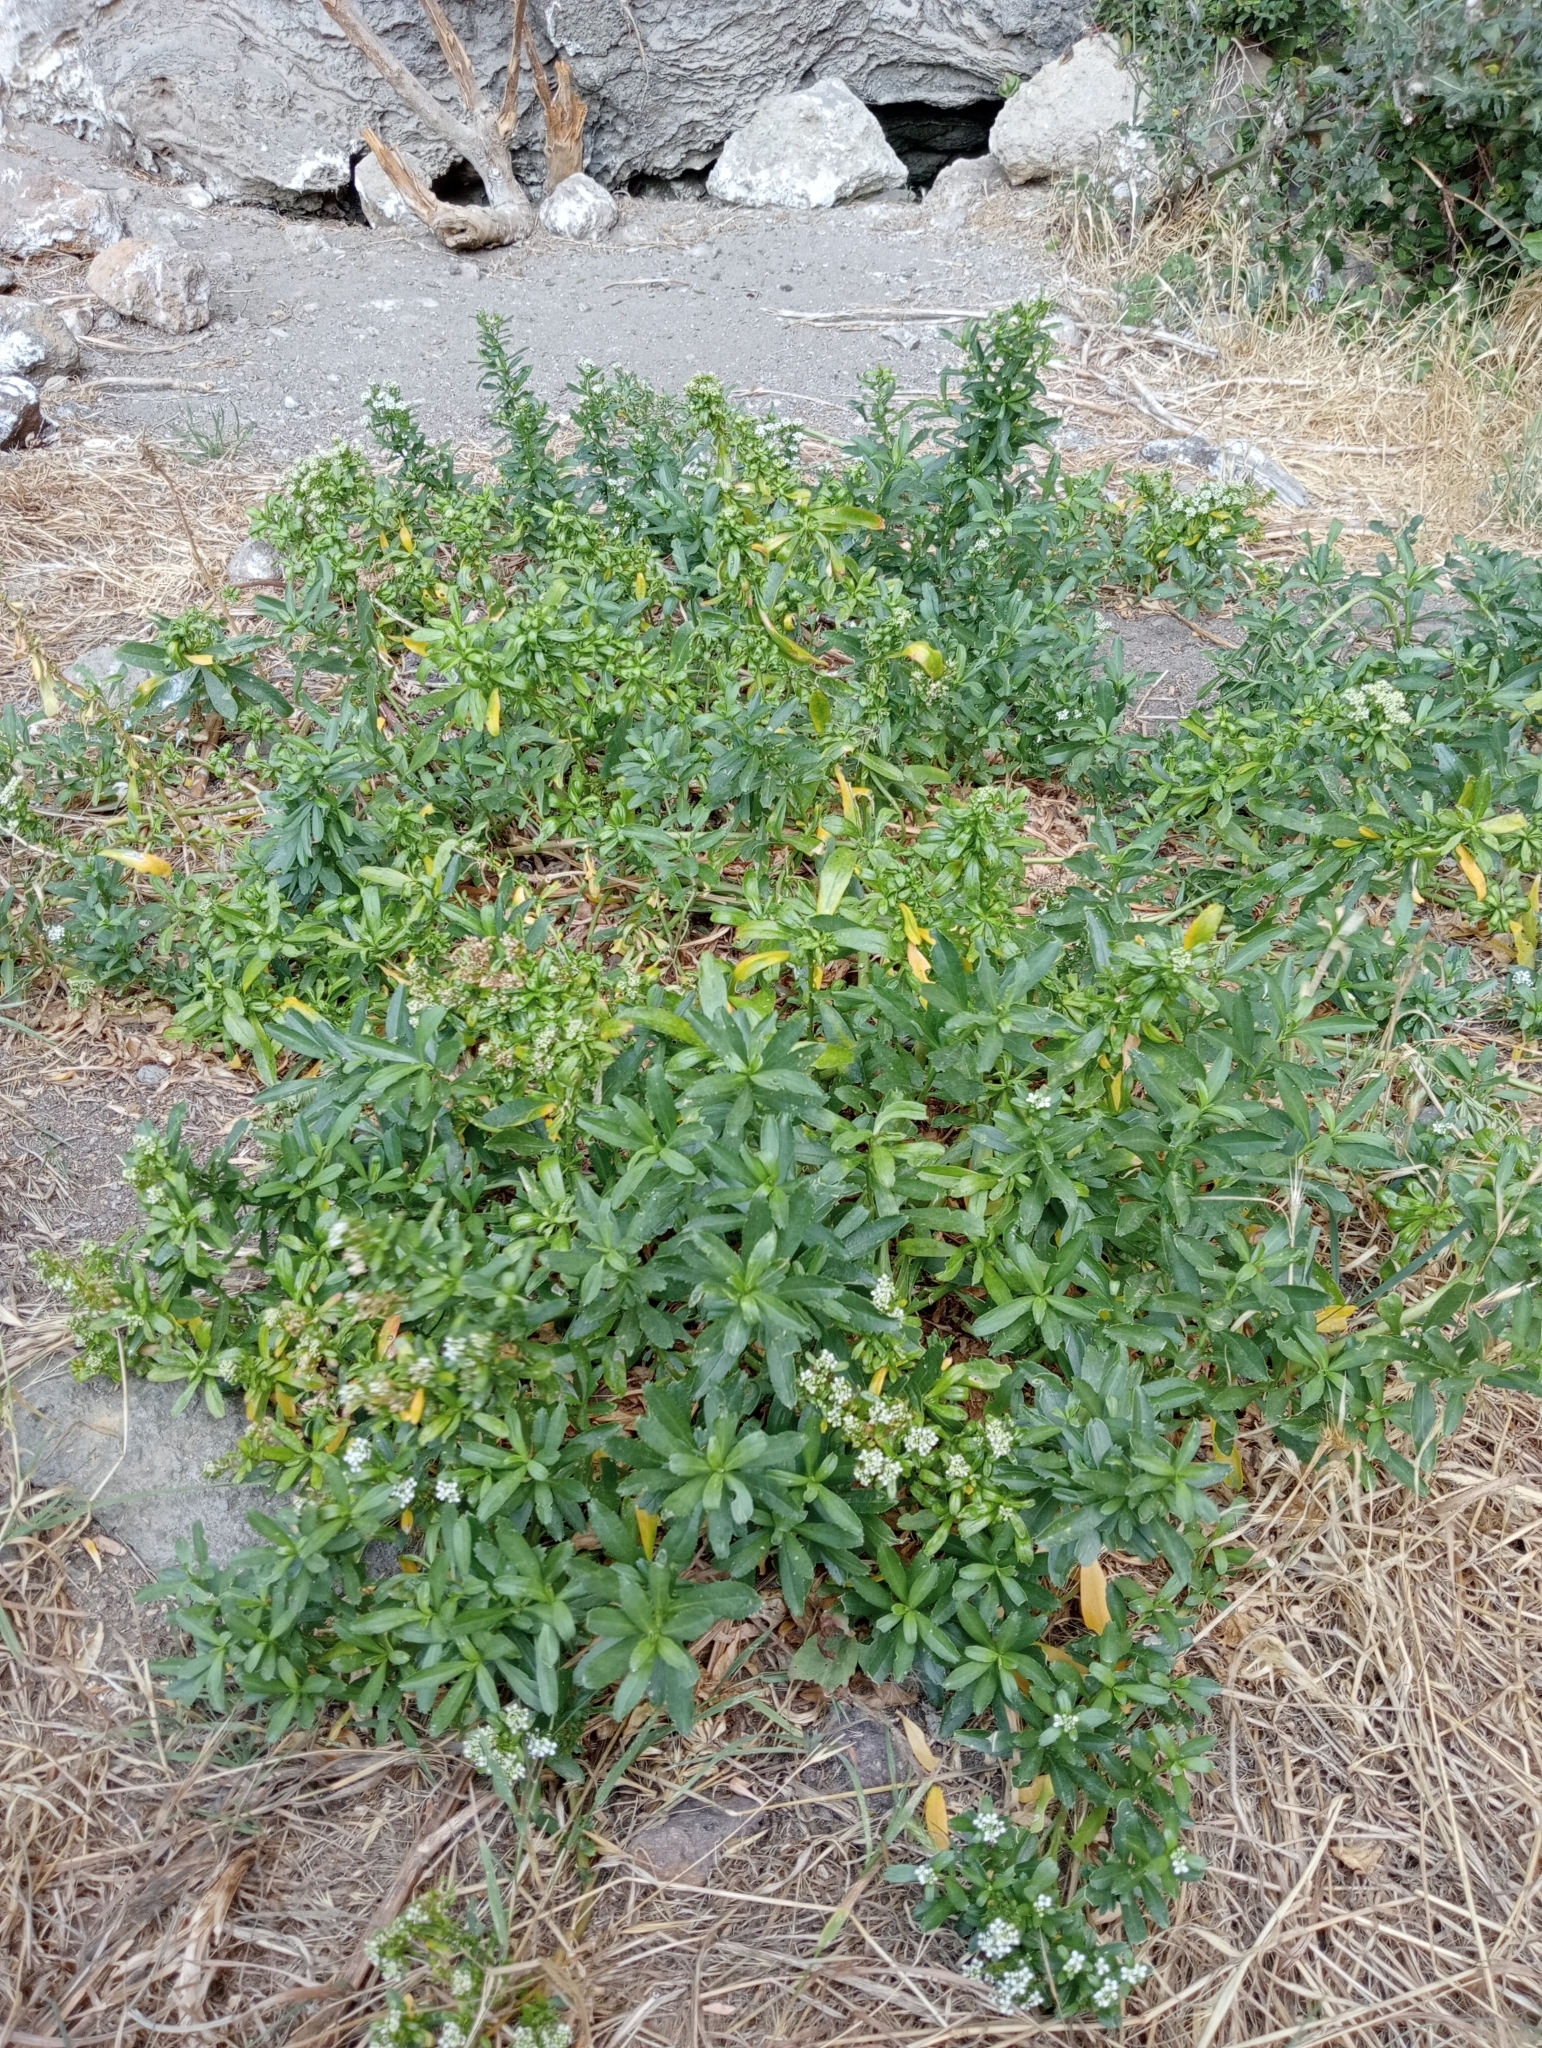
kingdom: Plantae
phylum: Tracheophyta
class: Magnoliopsida
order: Brassicales
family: Brassicaceae
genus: Lepidium
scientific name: Lepidium juvencum
